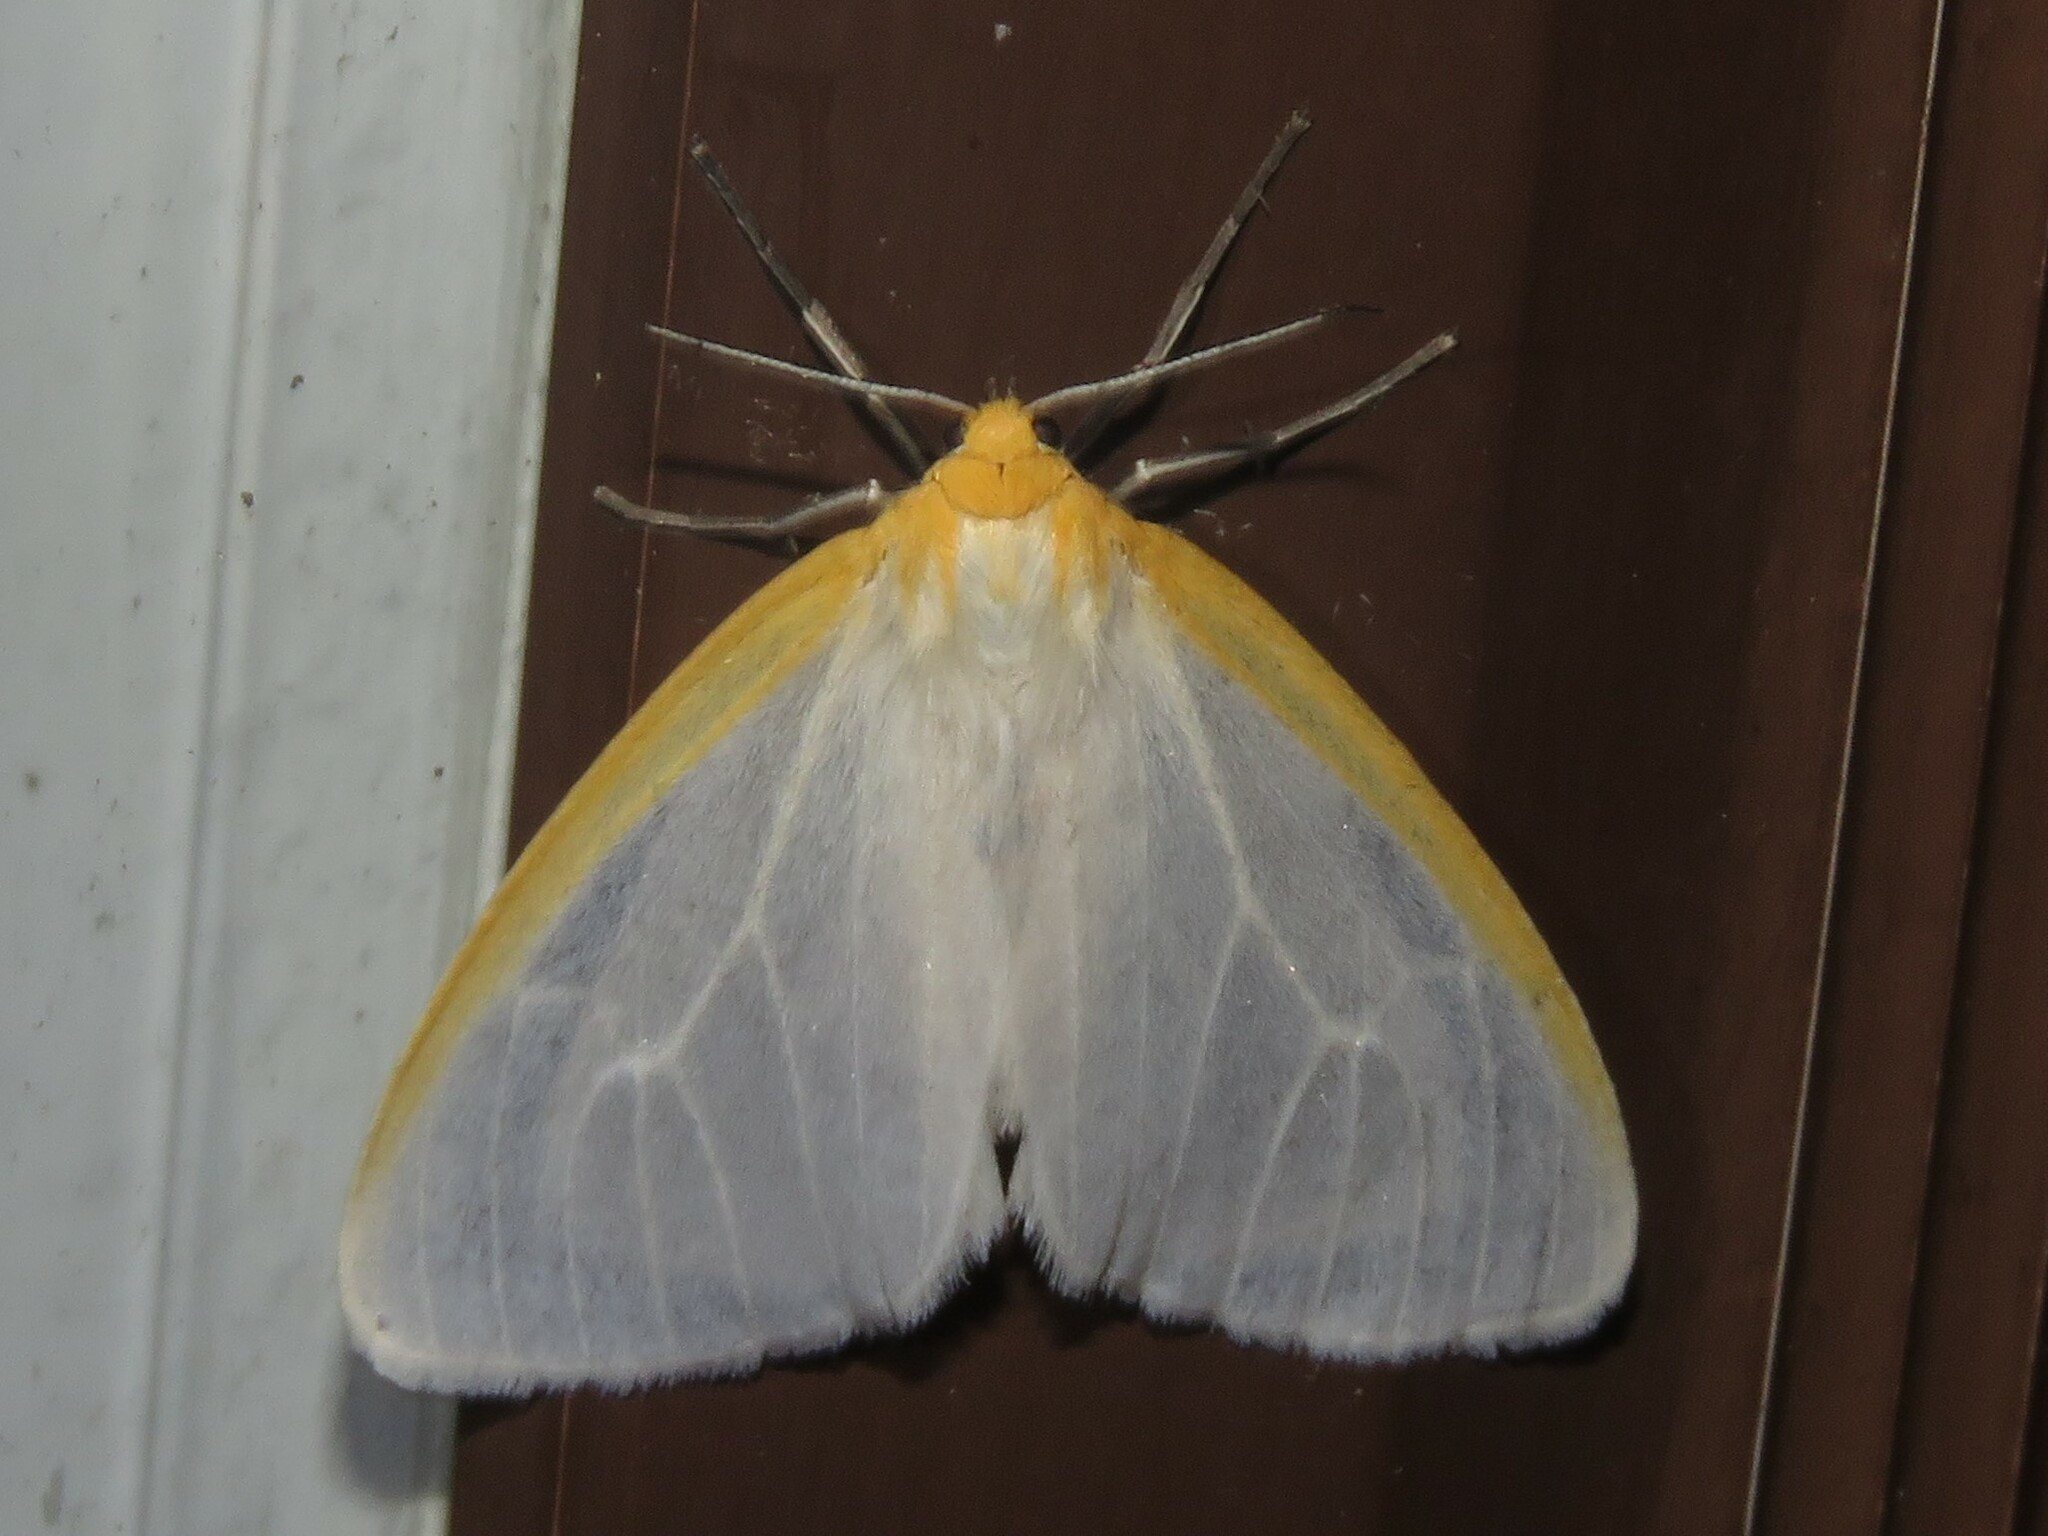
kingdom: Animalia
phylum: Arthropoda
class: Insecta
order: Lepidoptera
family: Erebidae
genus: Cycnia
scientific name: Cycnia tenera
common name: Delicate cycnia moth
